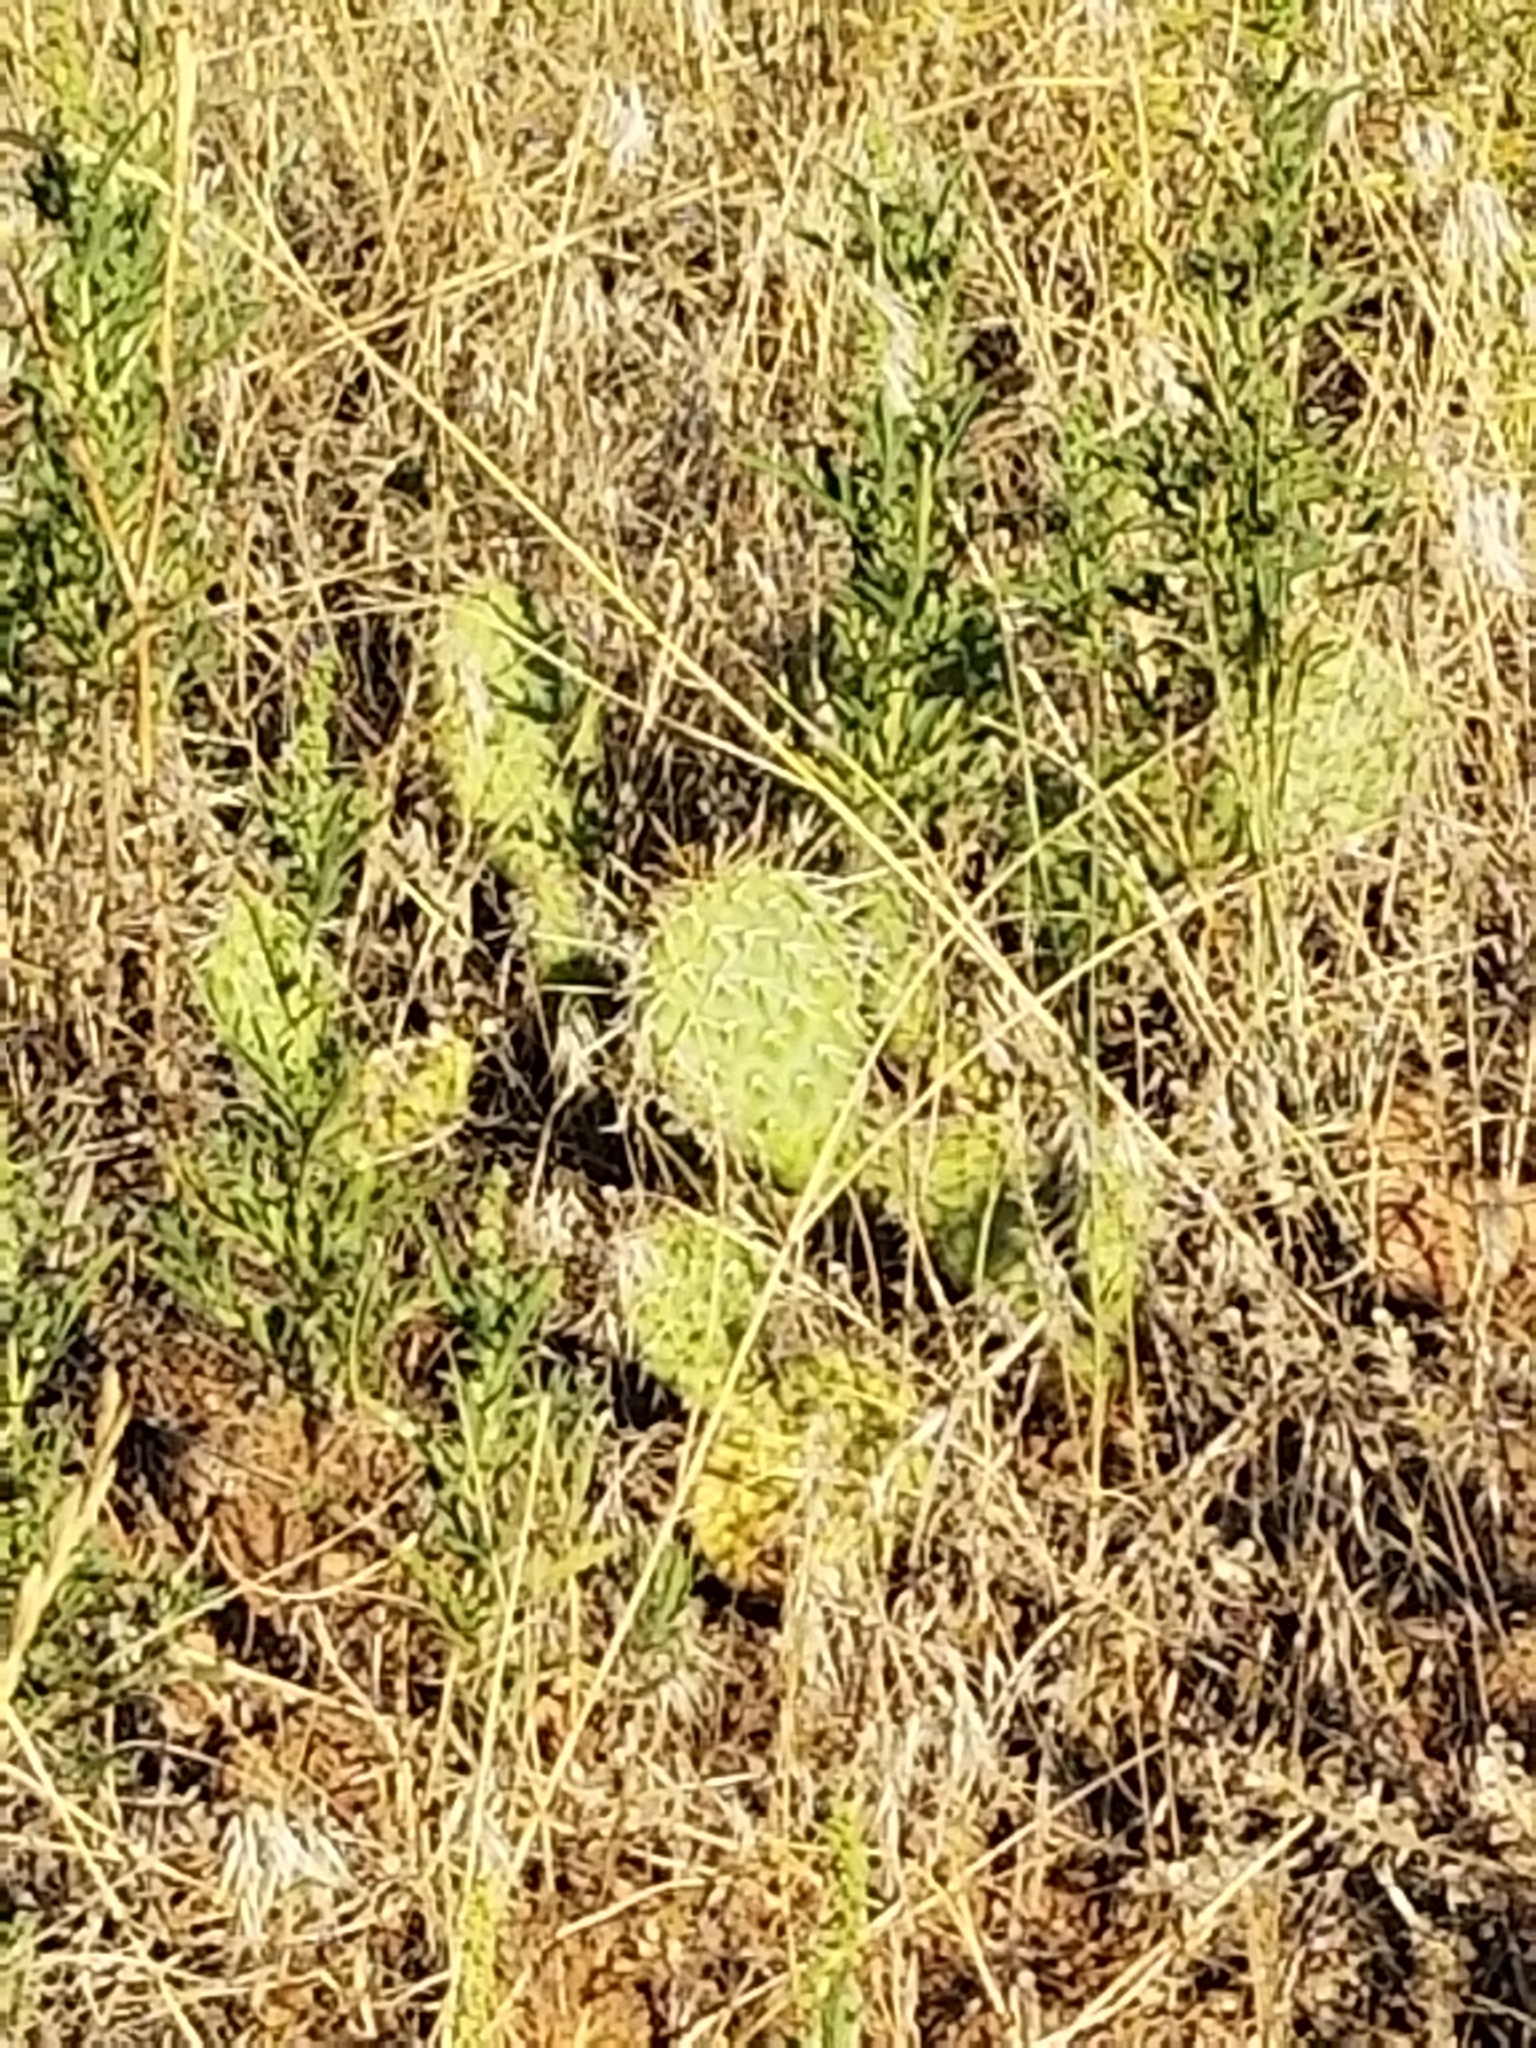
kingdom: Plantae
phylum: Tracheophyta
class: Magnoliopsida
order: Caryophyllales
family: Cactaceae
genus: Opuntia
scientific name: Opuntia polyacantha
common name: Plains prickly-pear
